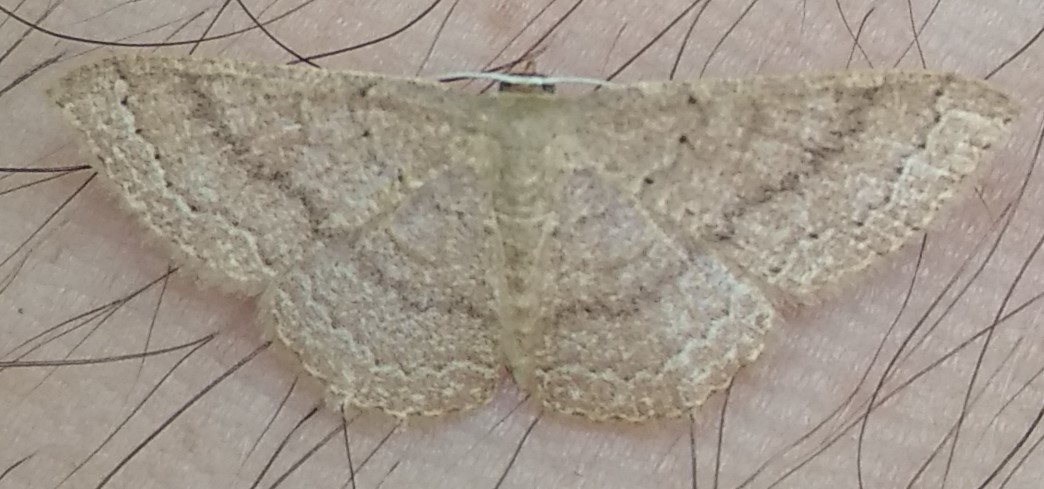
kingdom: Animalia
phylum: Arthropoda
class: Insecta
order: Lepidoptera
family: Geometridae
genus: Pleuroprucha
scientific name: Pleuroprucha insulsaria
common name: Common tan wave
